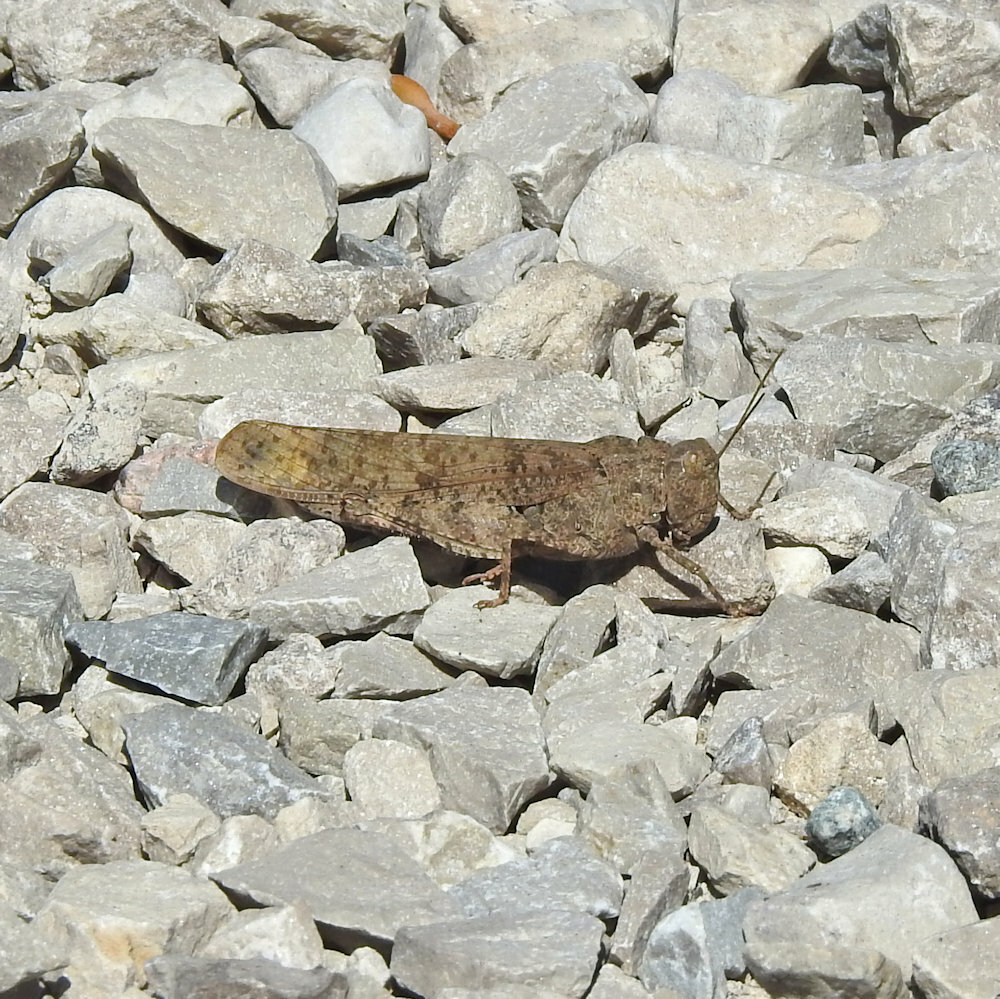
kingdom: Animalia
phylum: Arthropoda
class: Insecta
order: Orthoptera
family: Acrididae
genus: Dissosteira
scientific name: Dissosteira carolina
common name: Carolina grasshopper
